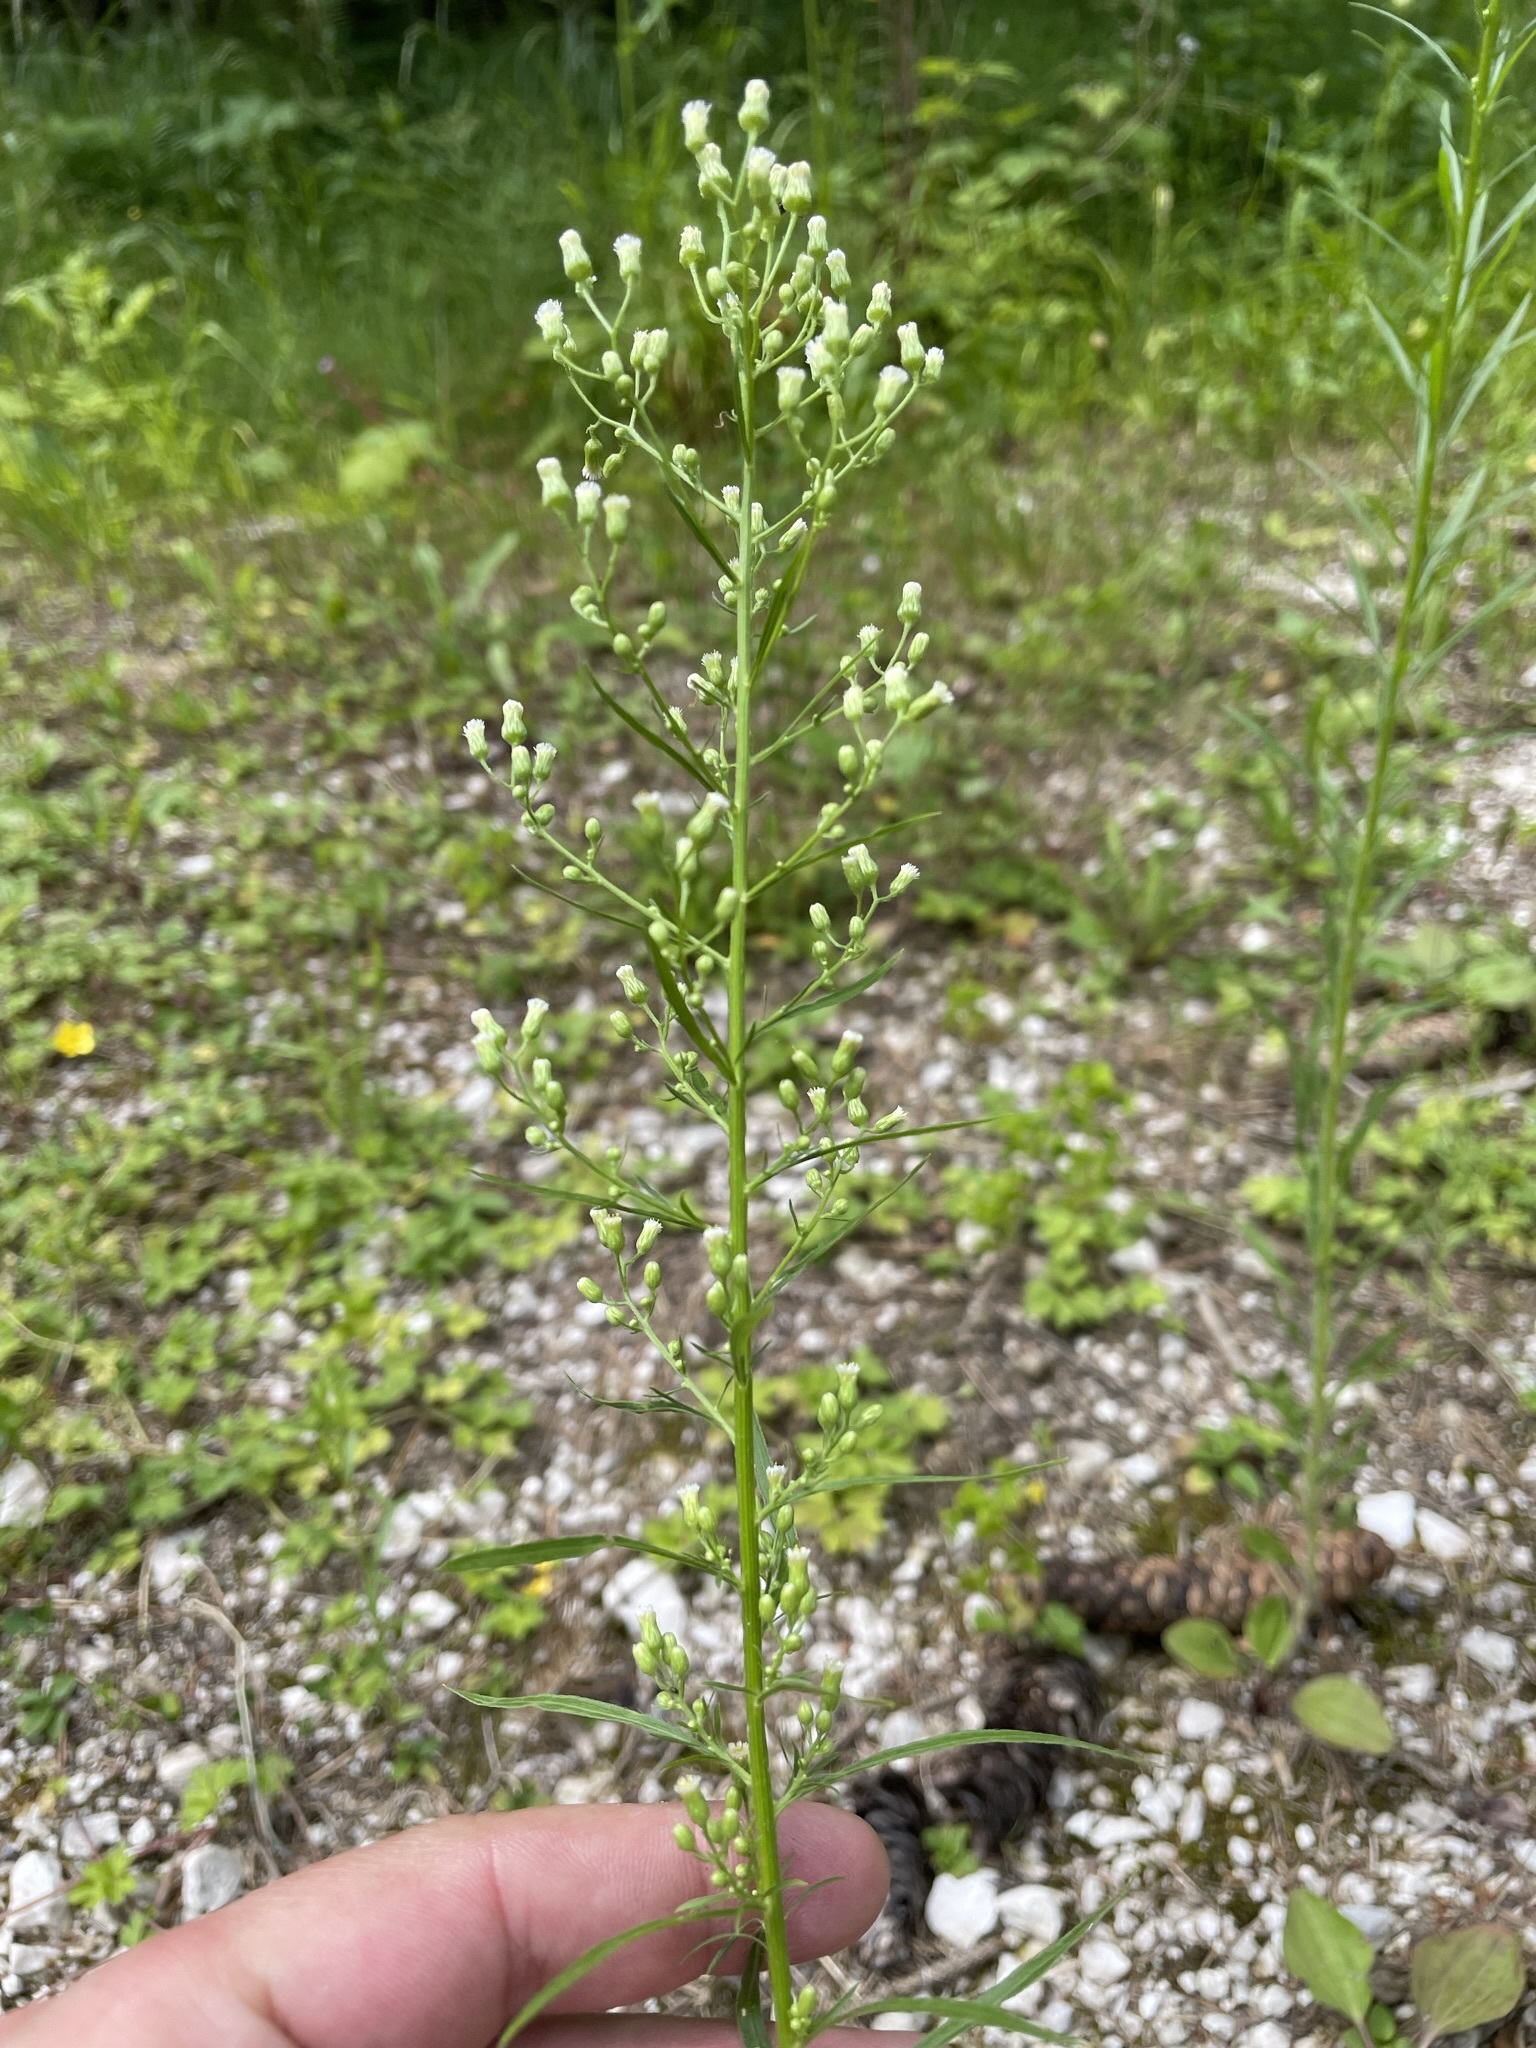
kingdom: Plantae
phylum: Tracheophyta
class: Magnoliopsida
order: Asterales
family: Asteraceae
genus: Erigeron
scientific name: Erigeron canadensis
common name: Canadian fleabane
